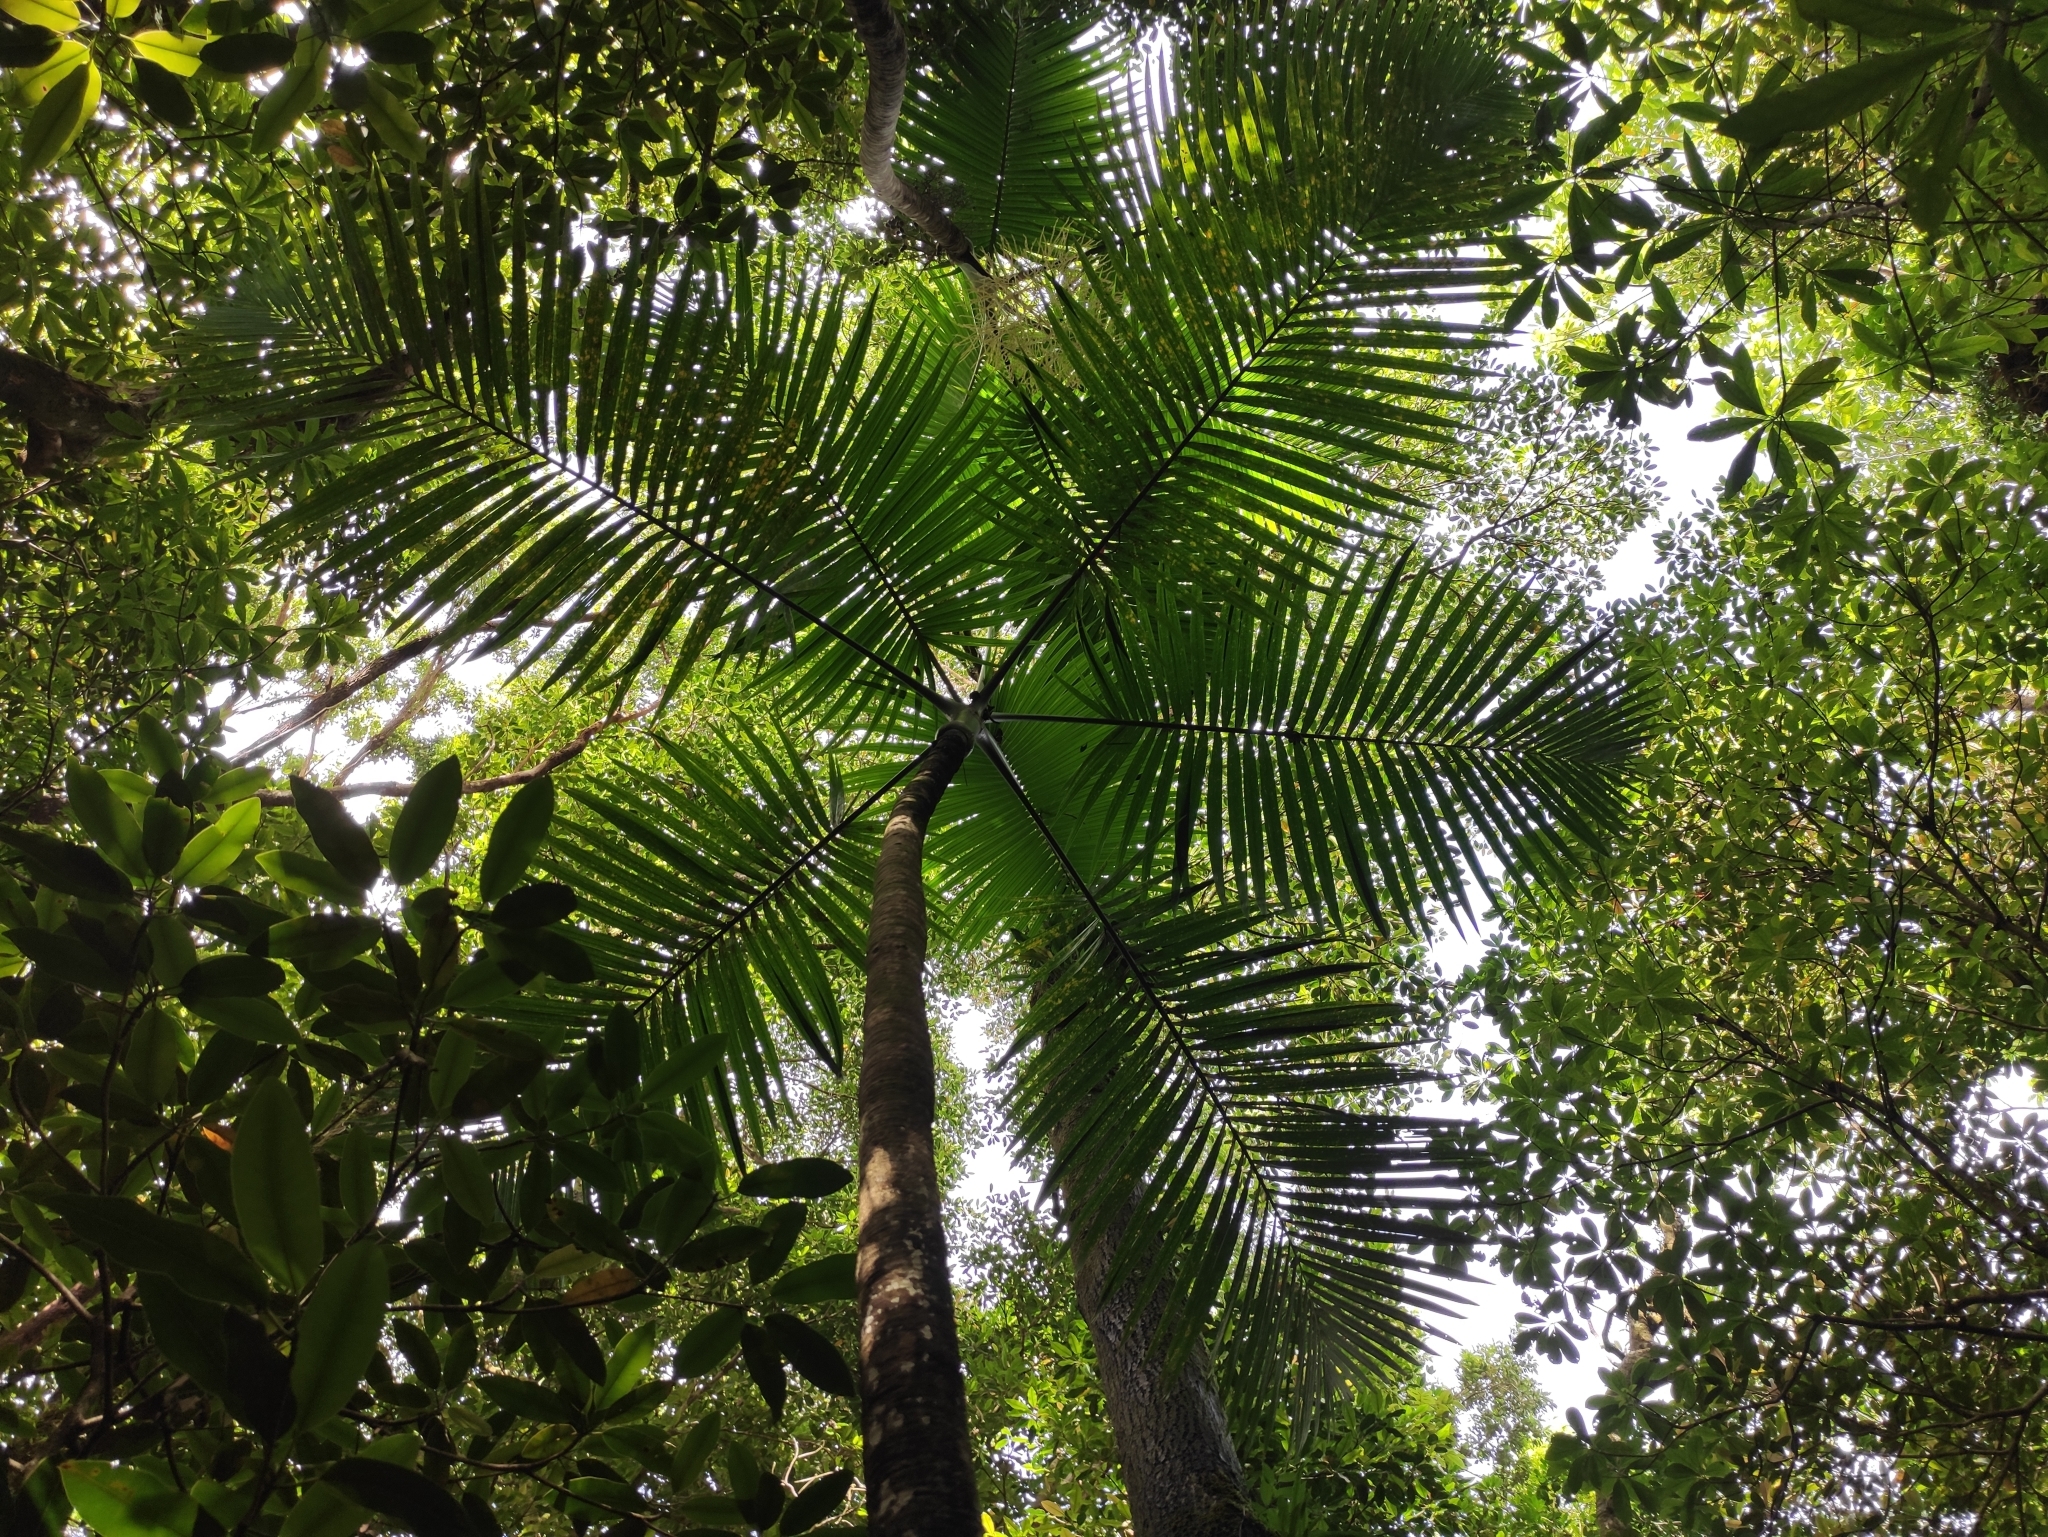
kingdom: Plantae
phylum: Tracheophyta
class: Liliopsida
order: Arecales
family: Arecaceae
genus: Hyophorbe
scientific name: Hyophorbe indica
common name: Palmiste poison
